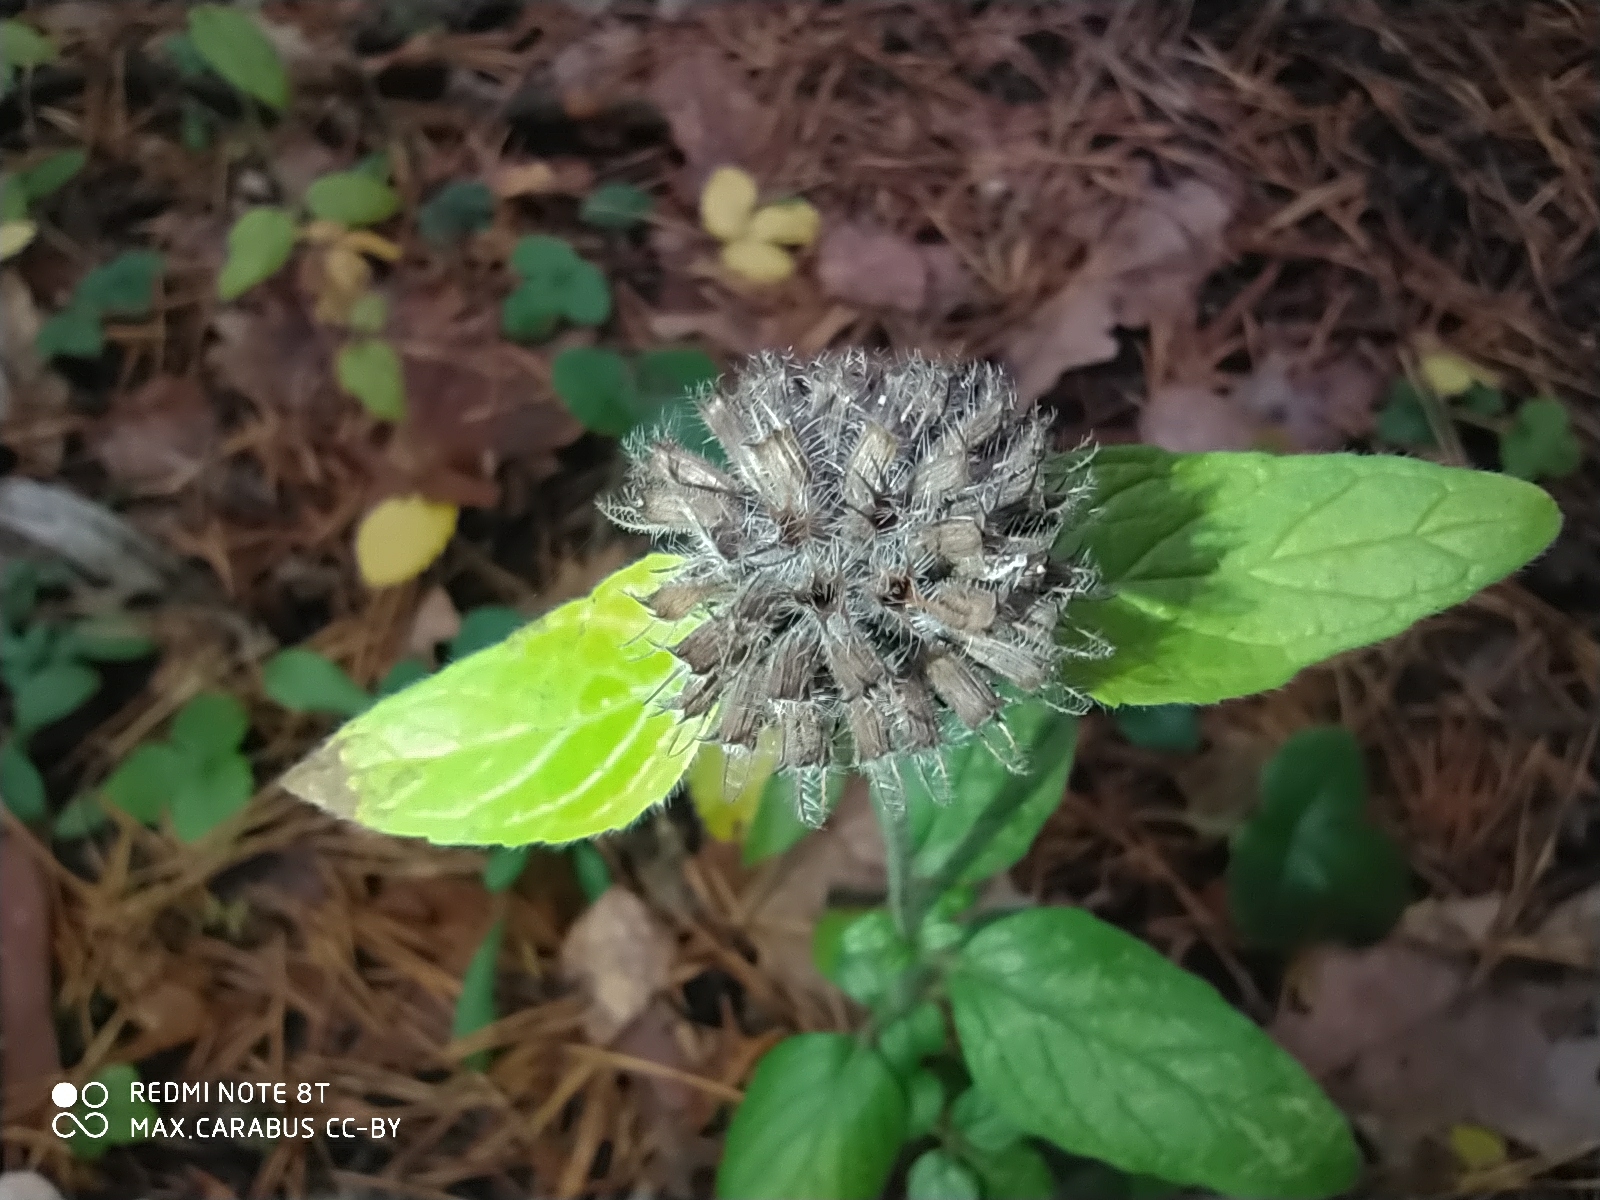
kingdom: Plantae
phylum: Tracheophyta
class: Magnoliopsida
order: Lamiales
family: Lamiaceae
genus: Clinopodium
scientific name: Clinopodium vulgare
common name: Wild basil
